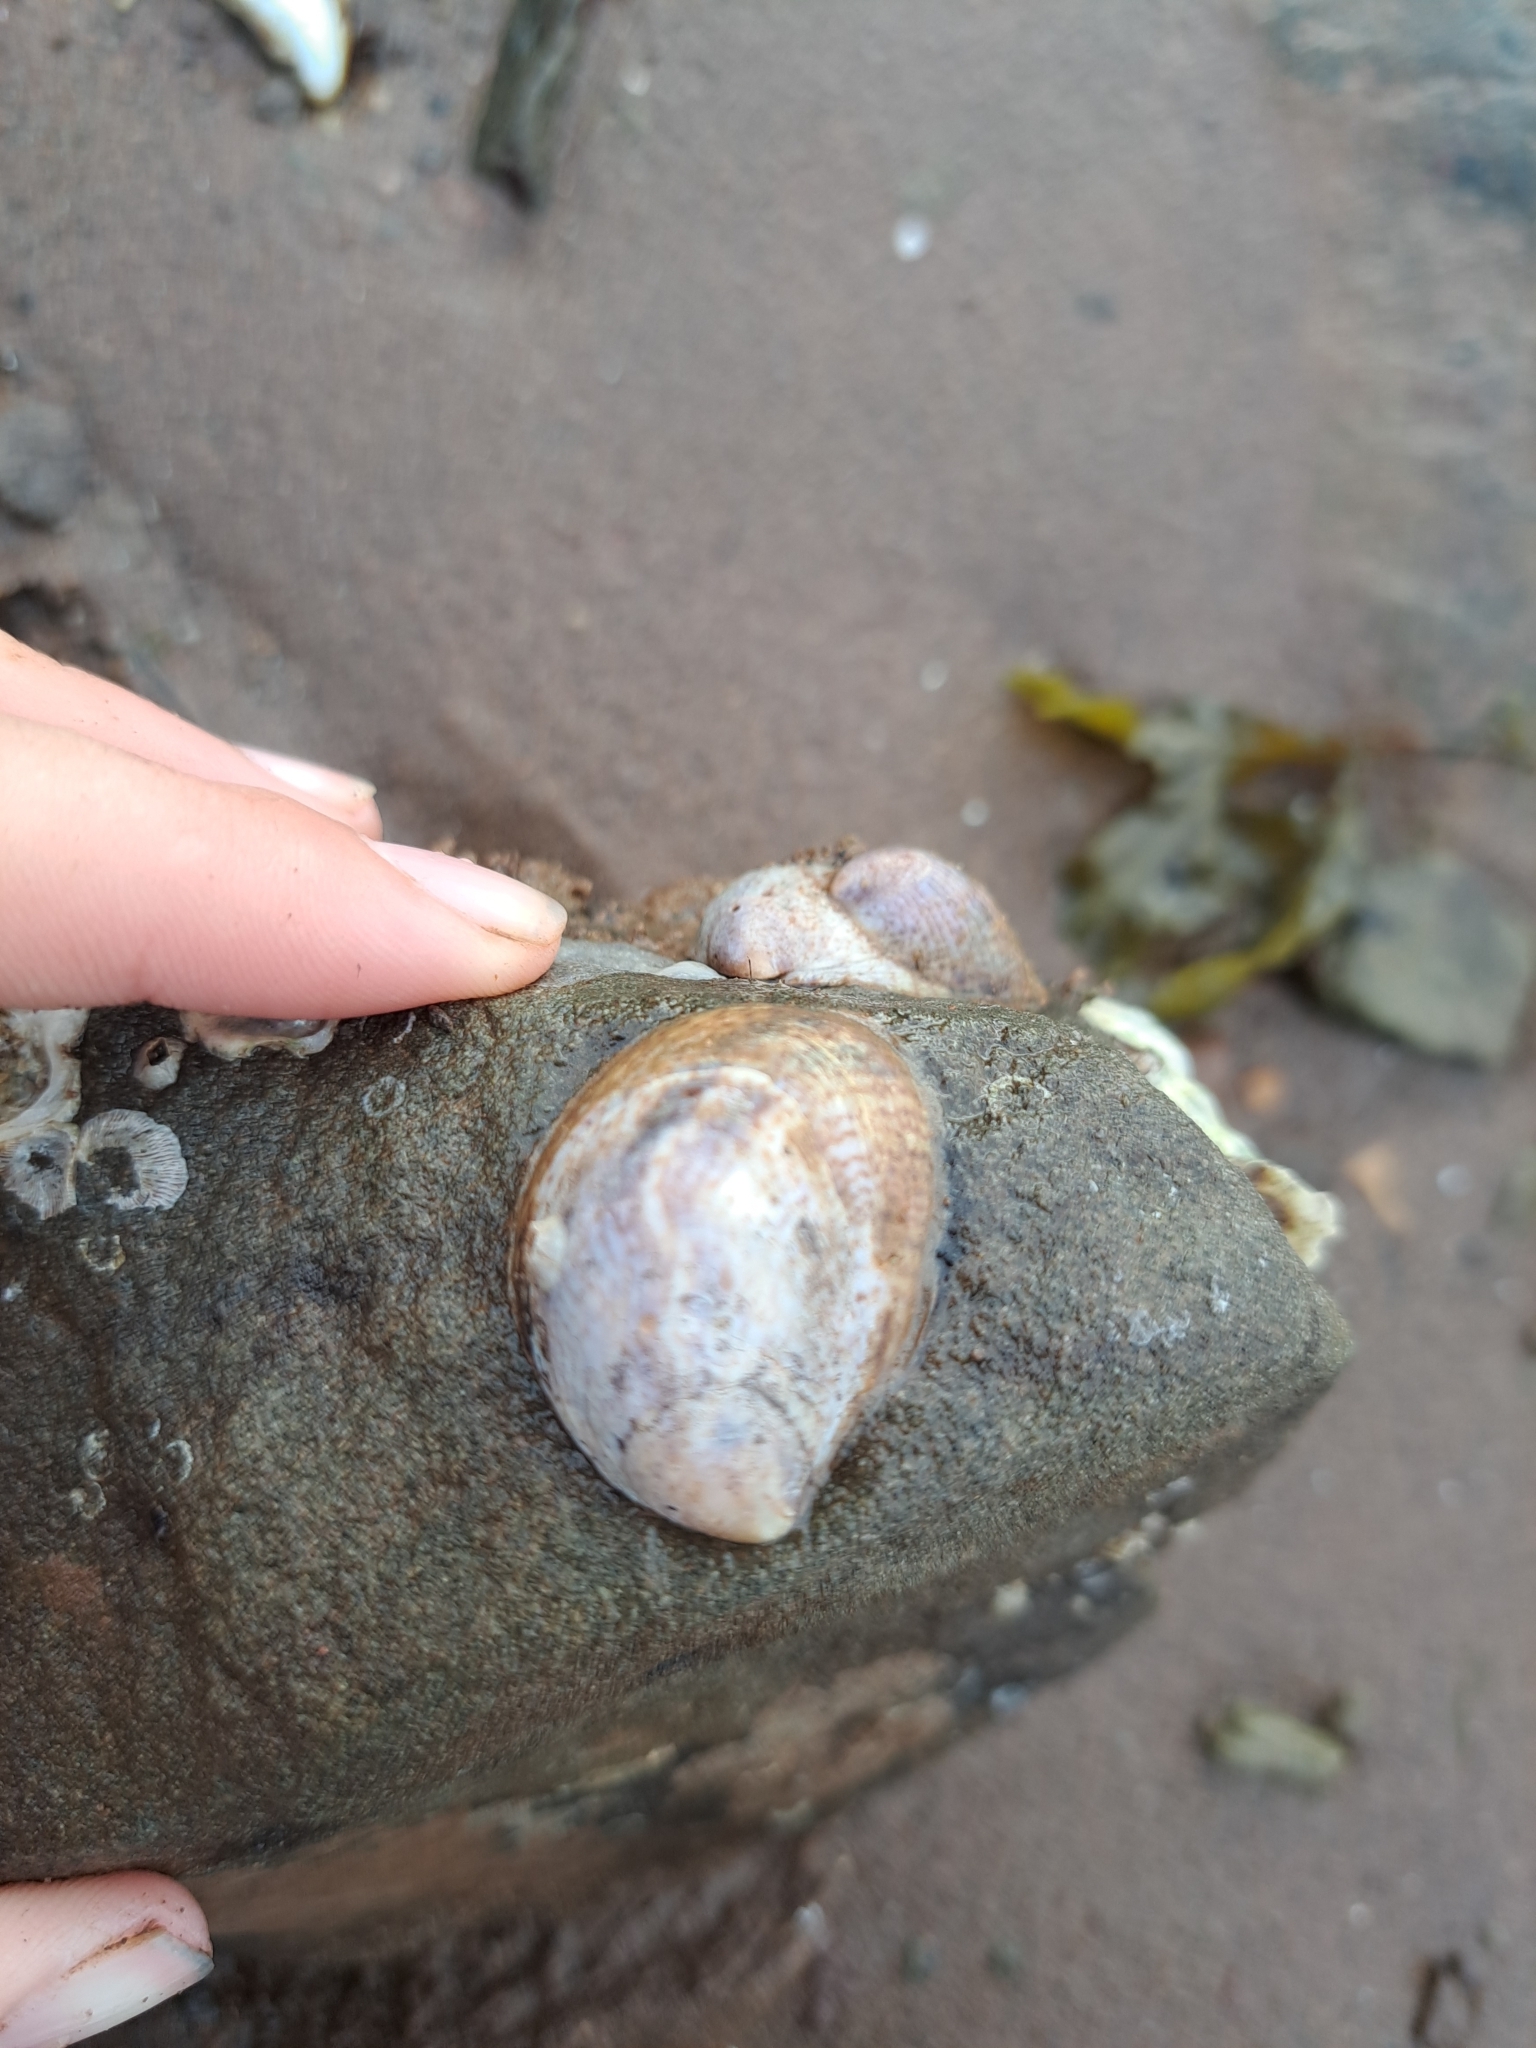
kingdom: Animalia
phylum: Mollusca
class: Gastropoda
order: Littorinimorpha
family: Calyptraeidae
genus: Crepidula
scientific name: Crepidula fornicata
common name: Slipper limpet
